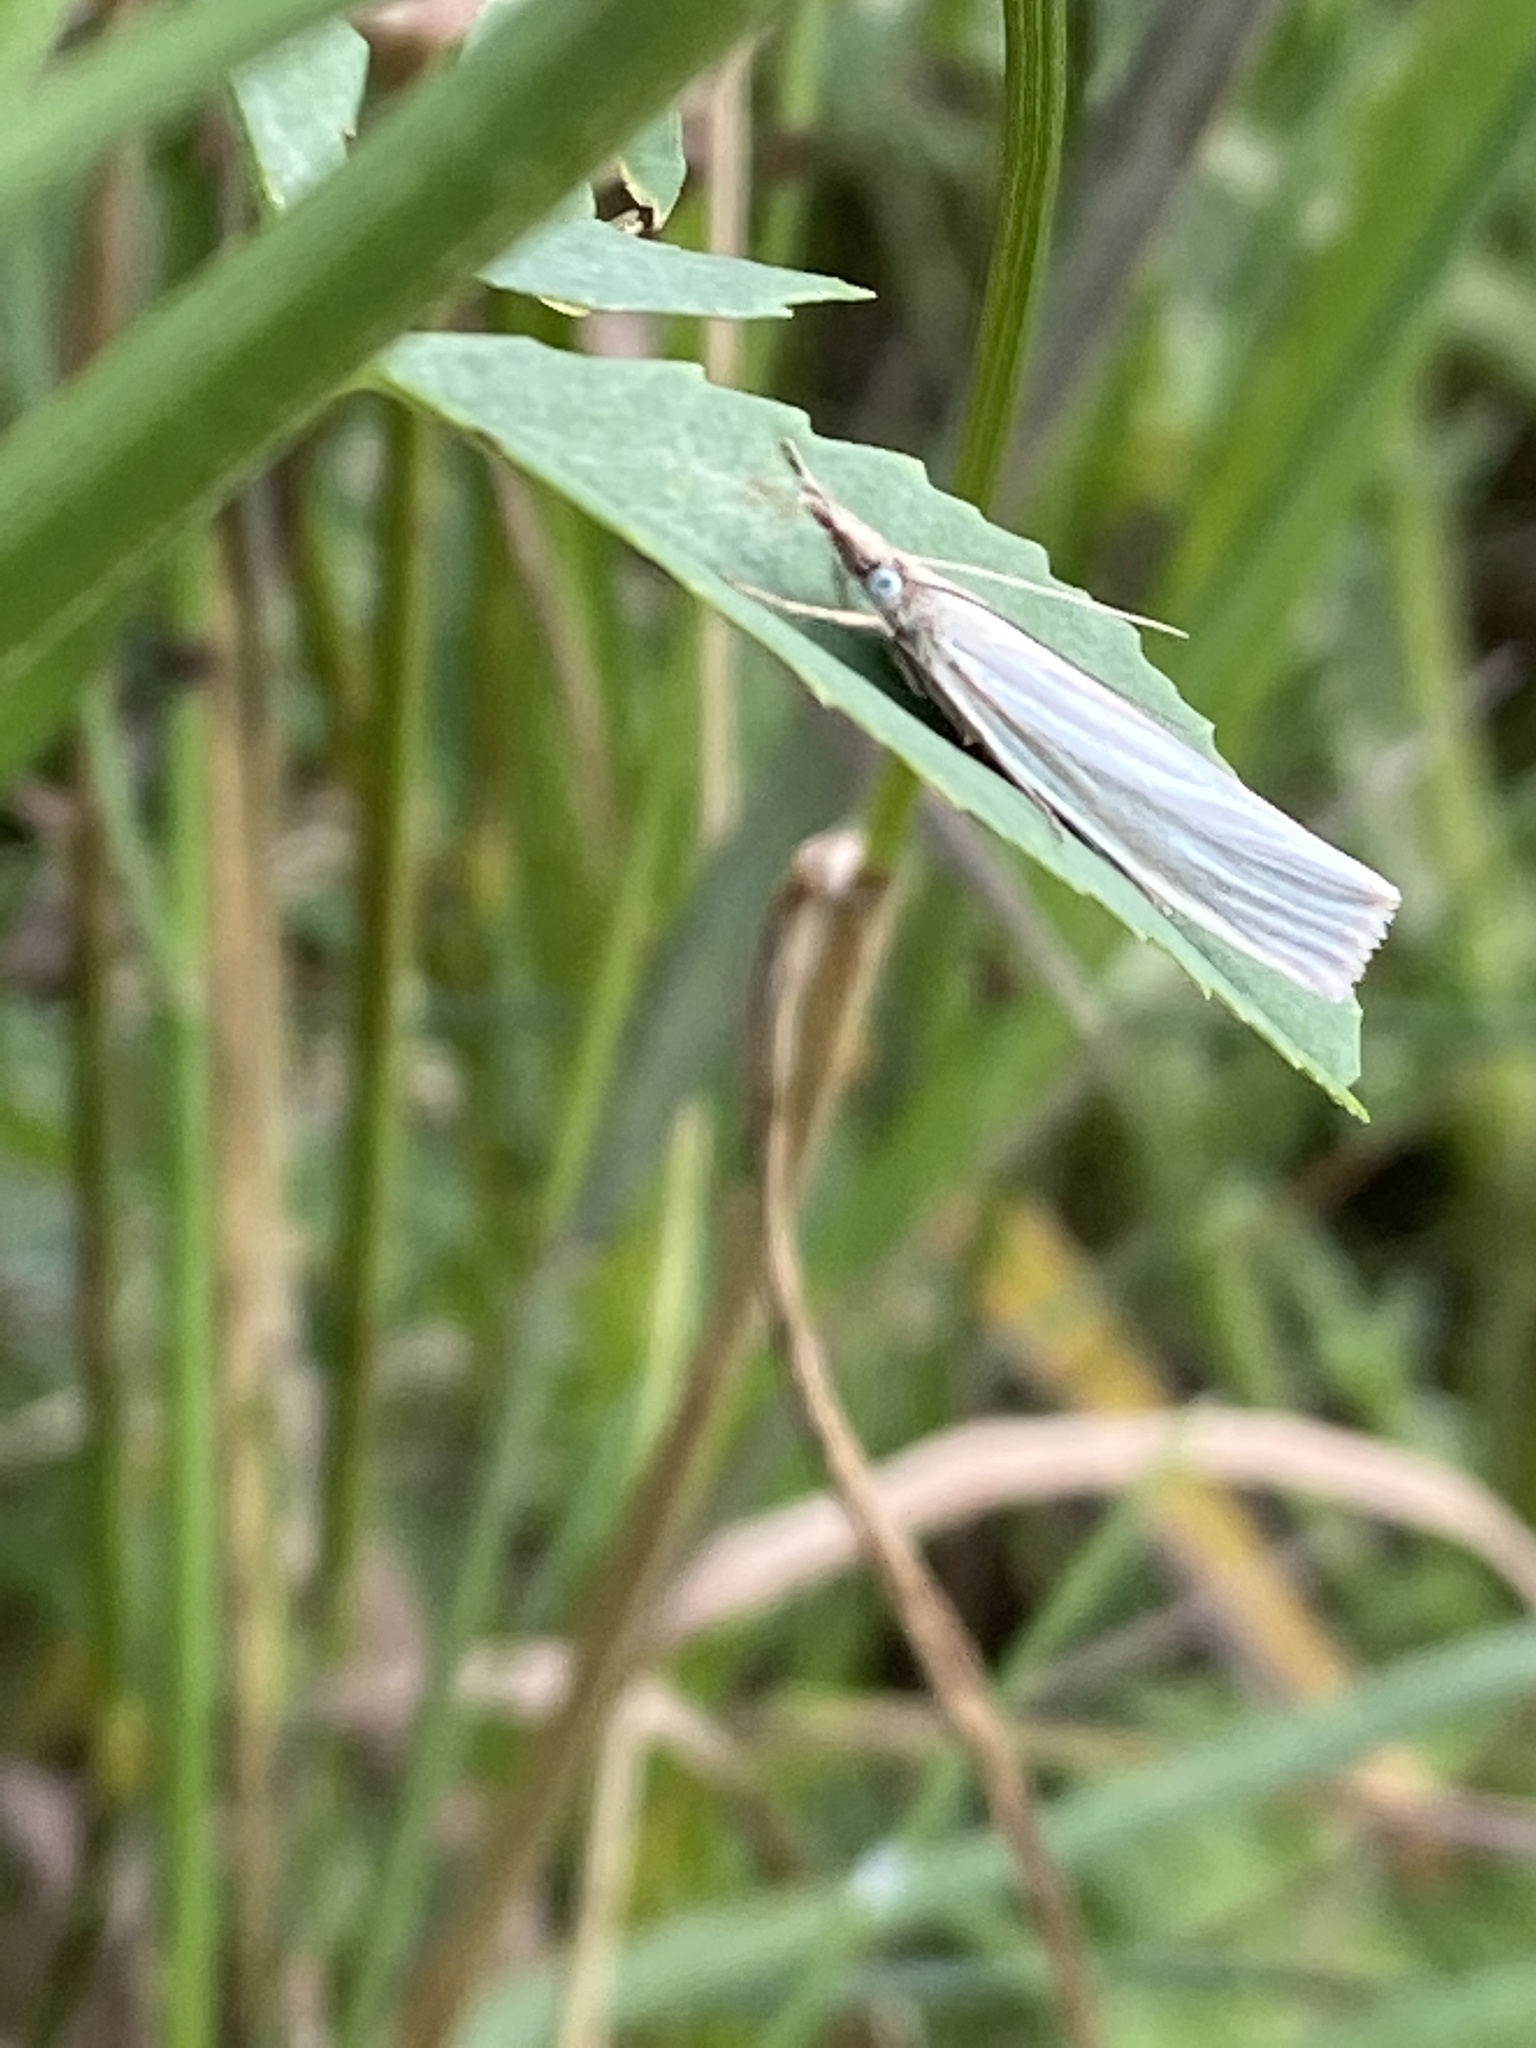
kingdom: Animalia
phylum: Arthropoda
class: Insecta
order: Lepidoptera
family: Crambidae
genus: Crambus
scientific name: Crambus perlellus
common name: Yellow satin veneer
